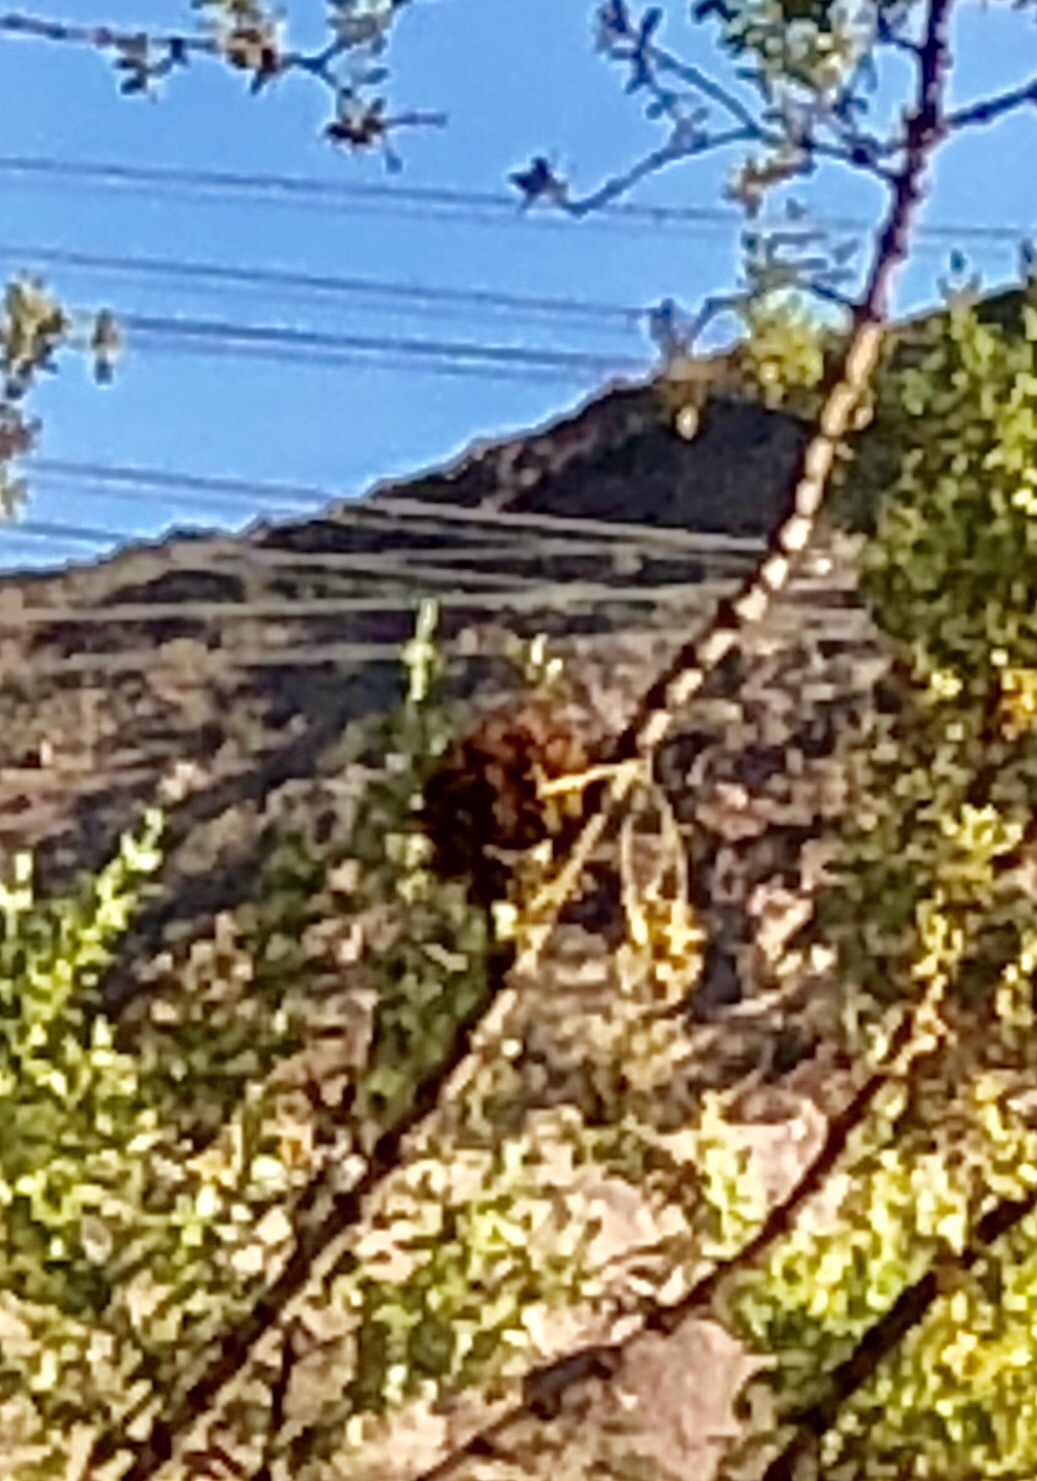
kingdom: Animalia
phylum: Arthropoda
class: Insecta
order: Diptera
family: Cecidomyiidae
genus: Asphondylia
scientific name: Asphondylia auripila
